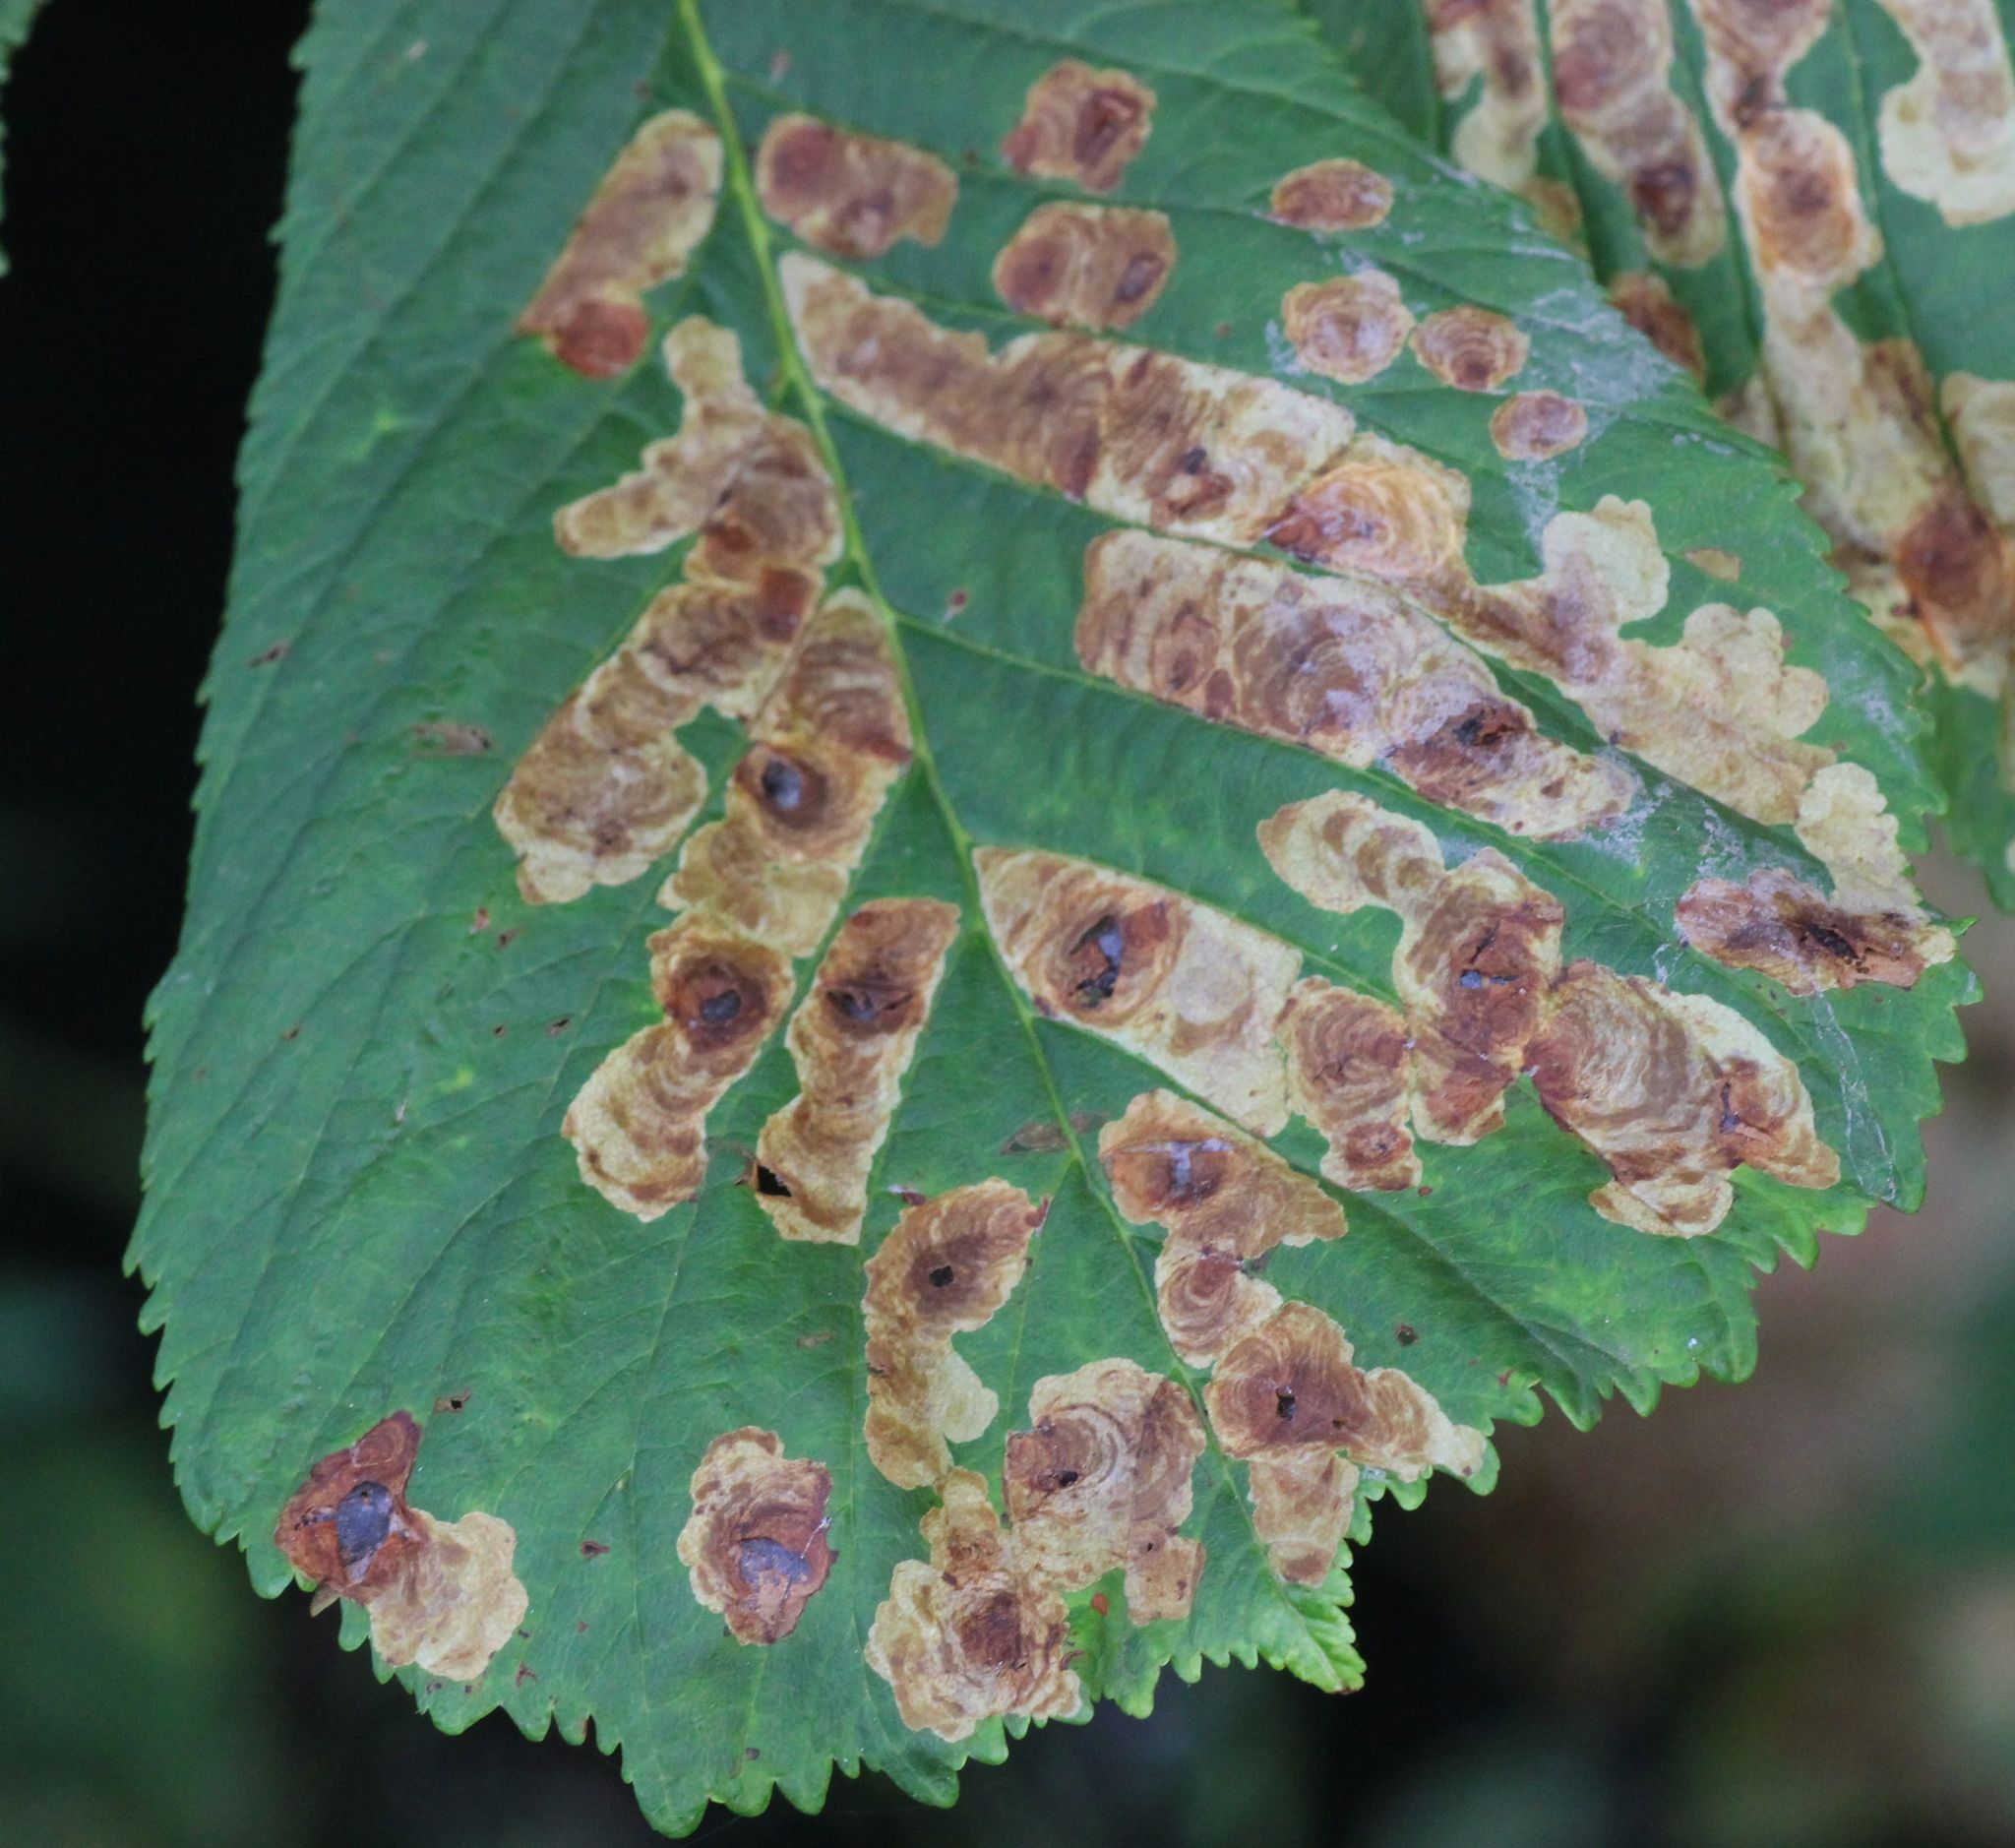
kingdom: Animalia
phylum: Arthropoda
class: Insecta
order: Lepidoptera
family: Gracillariidae
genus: Cameraria
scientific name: Cameraria ohridella
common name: Horse-chestnut leaf-miner
